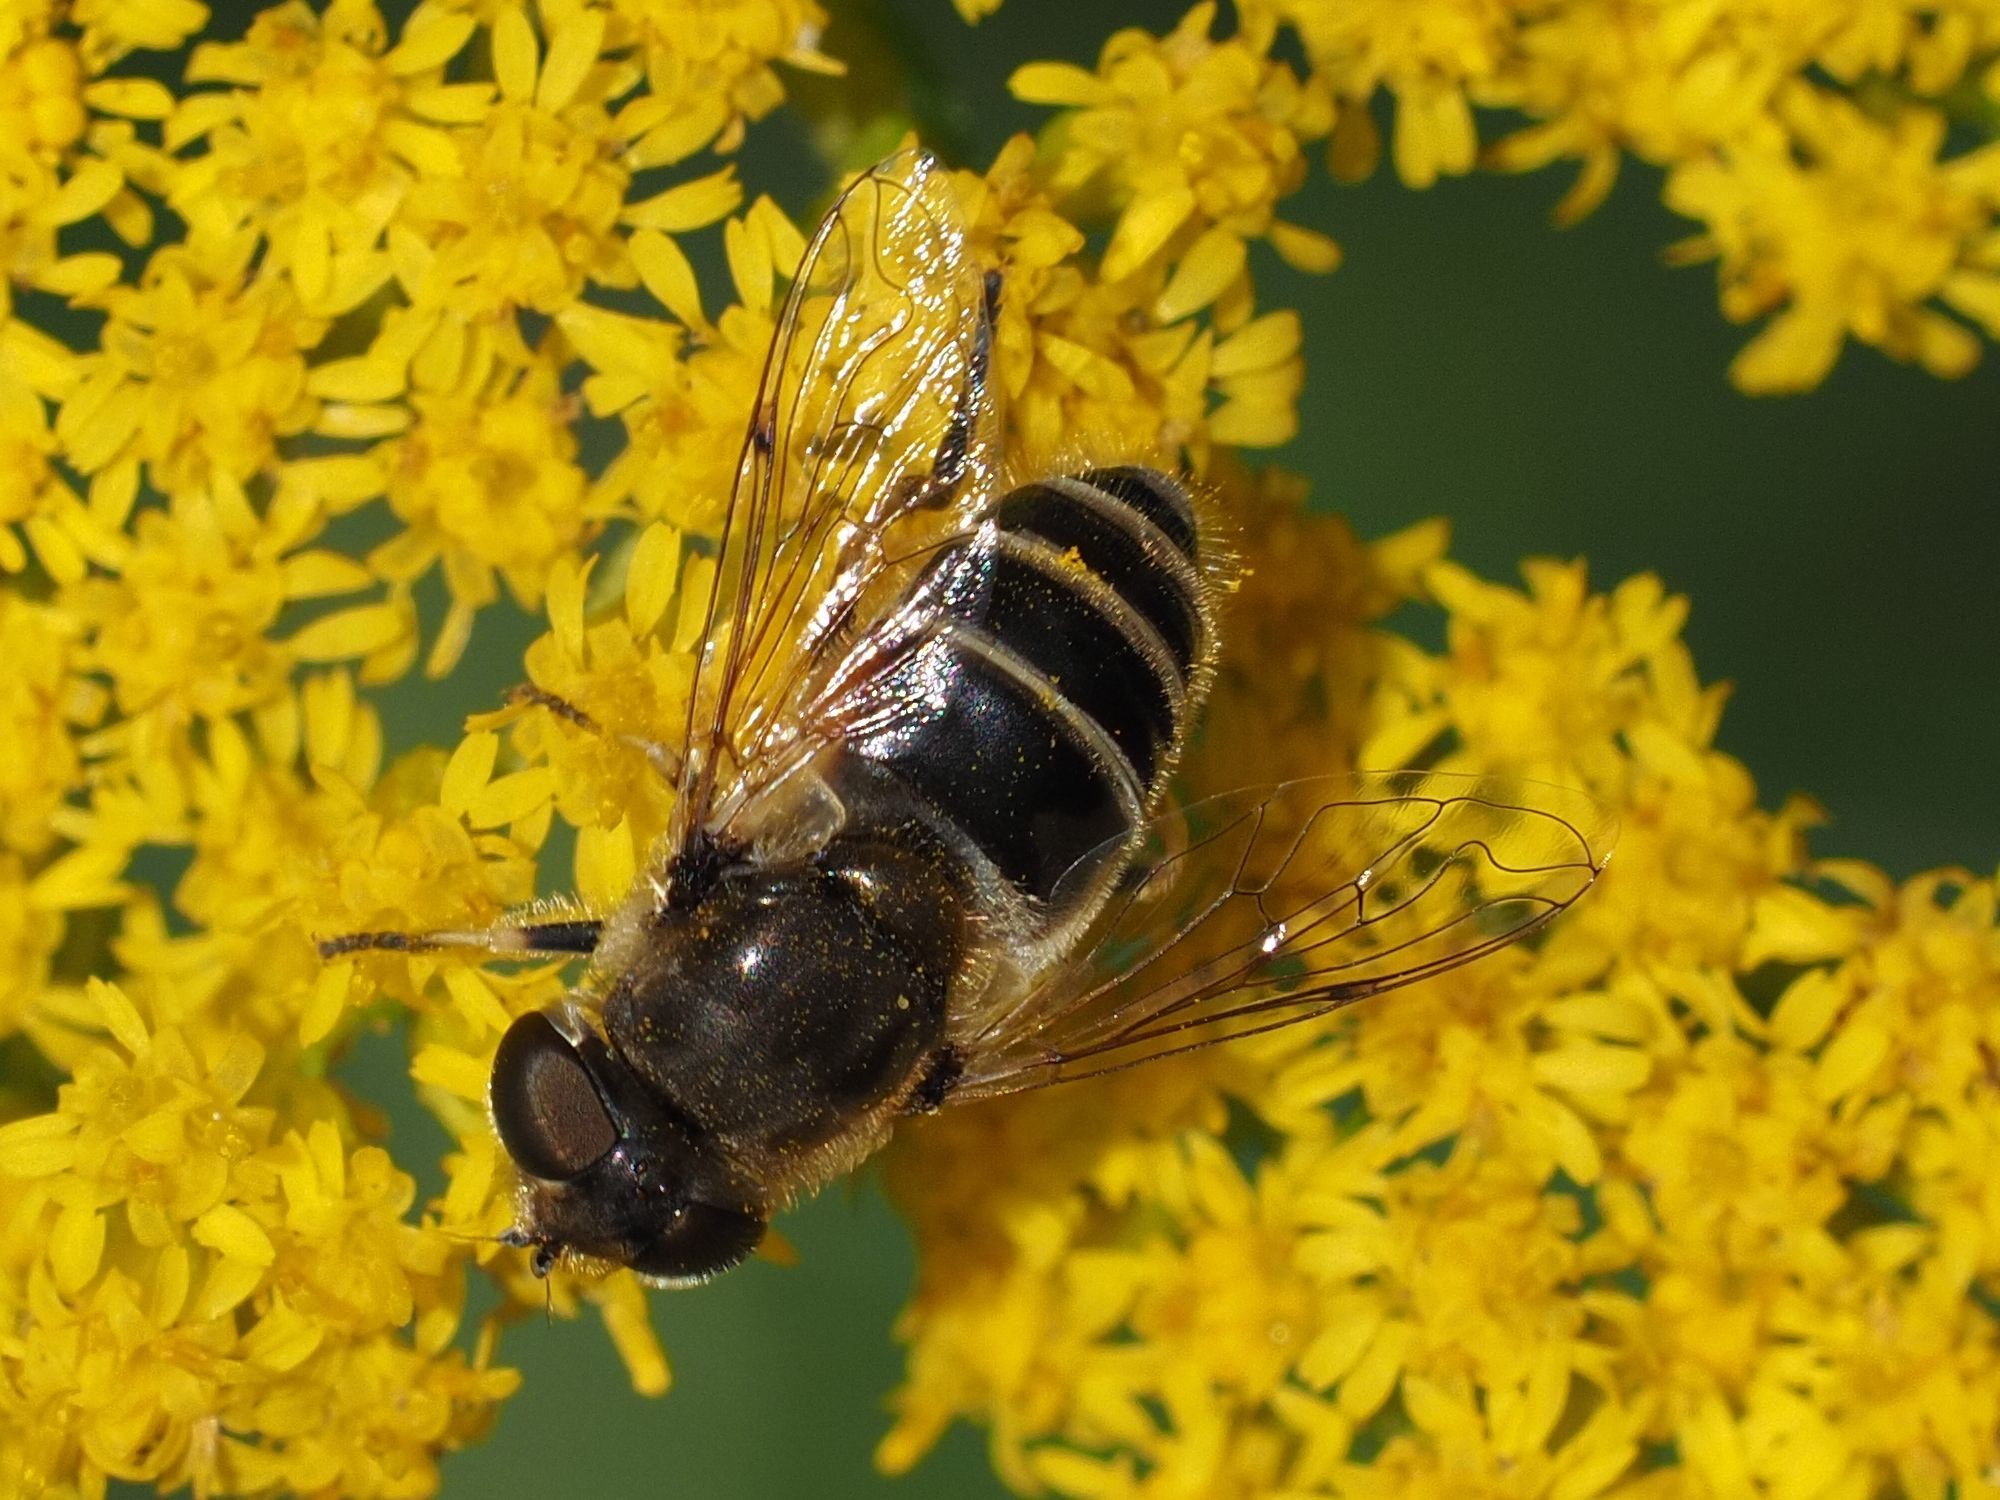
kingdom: Animalia
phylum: Arthropoda
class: Insecta
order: Diptera
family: Syrphidae
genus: Eristalis
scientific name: Eristalis arbustorum
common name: Hover fly
